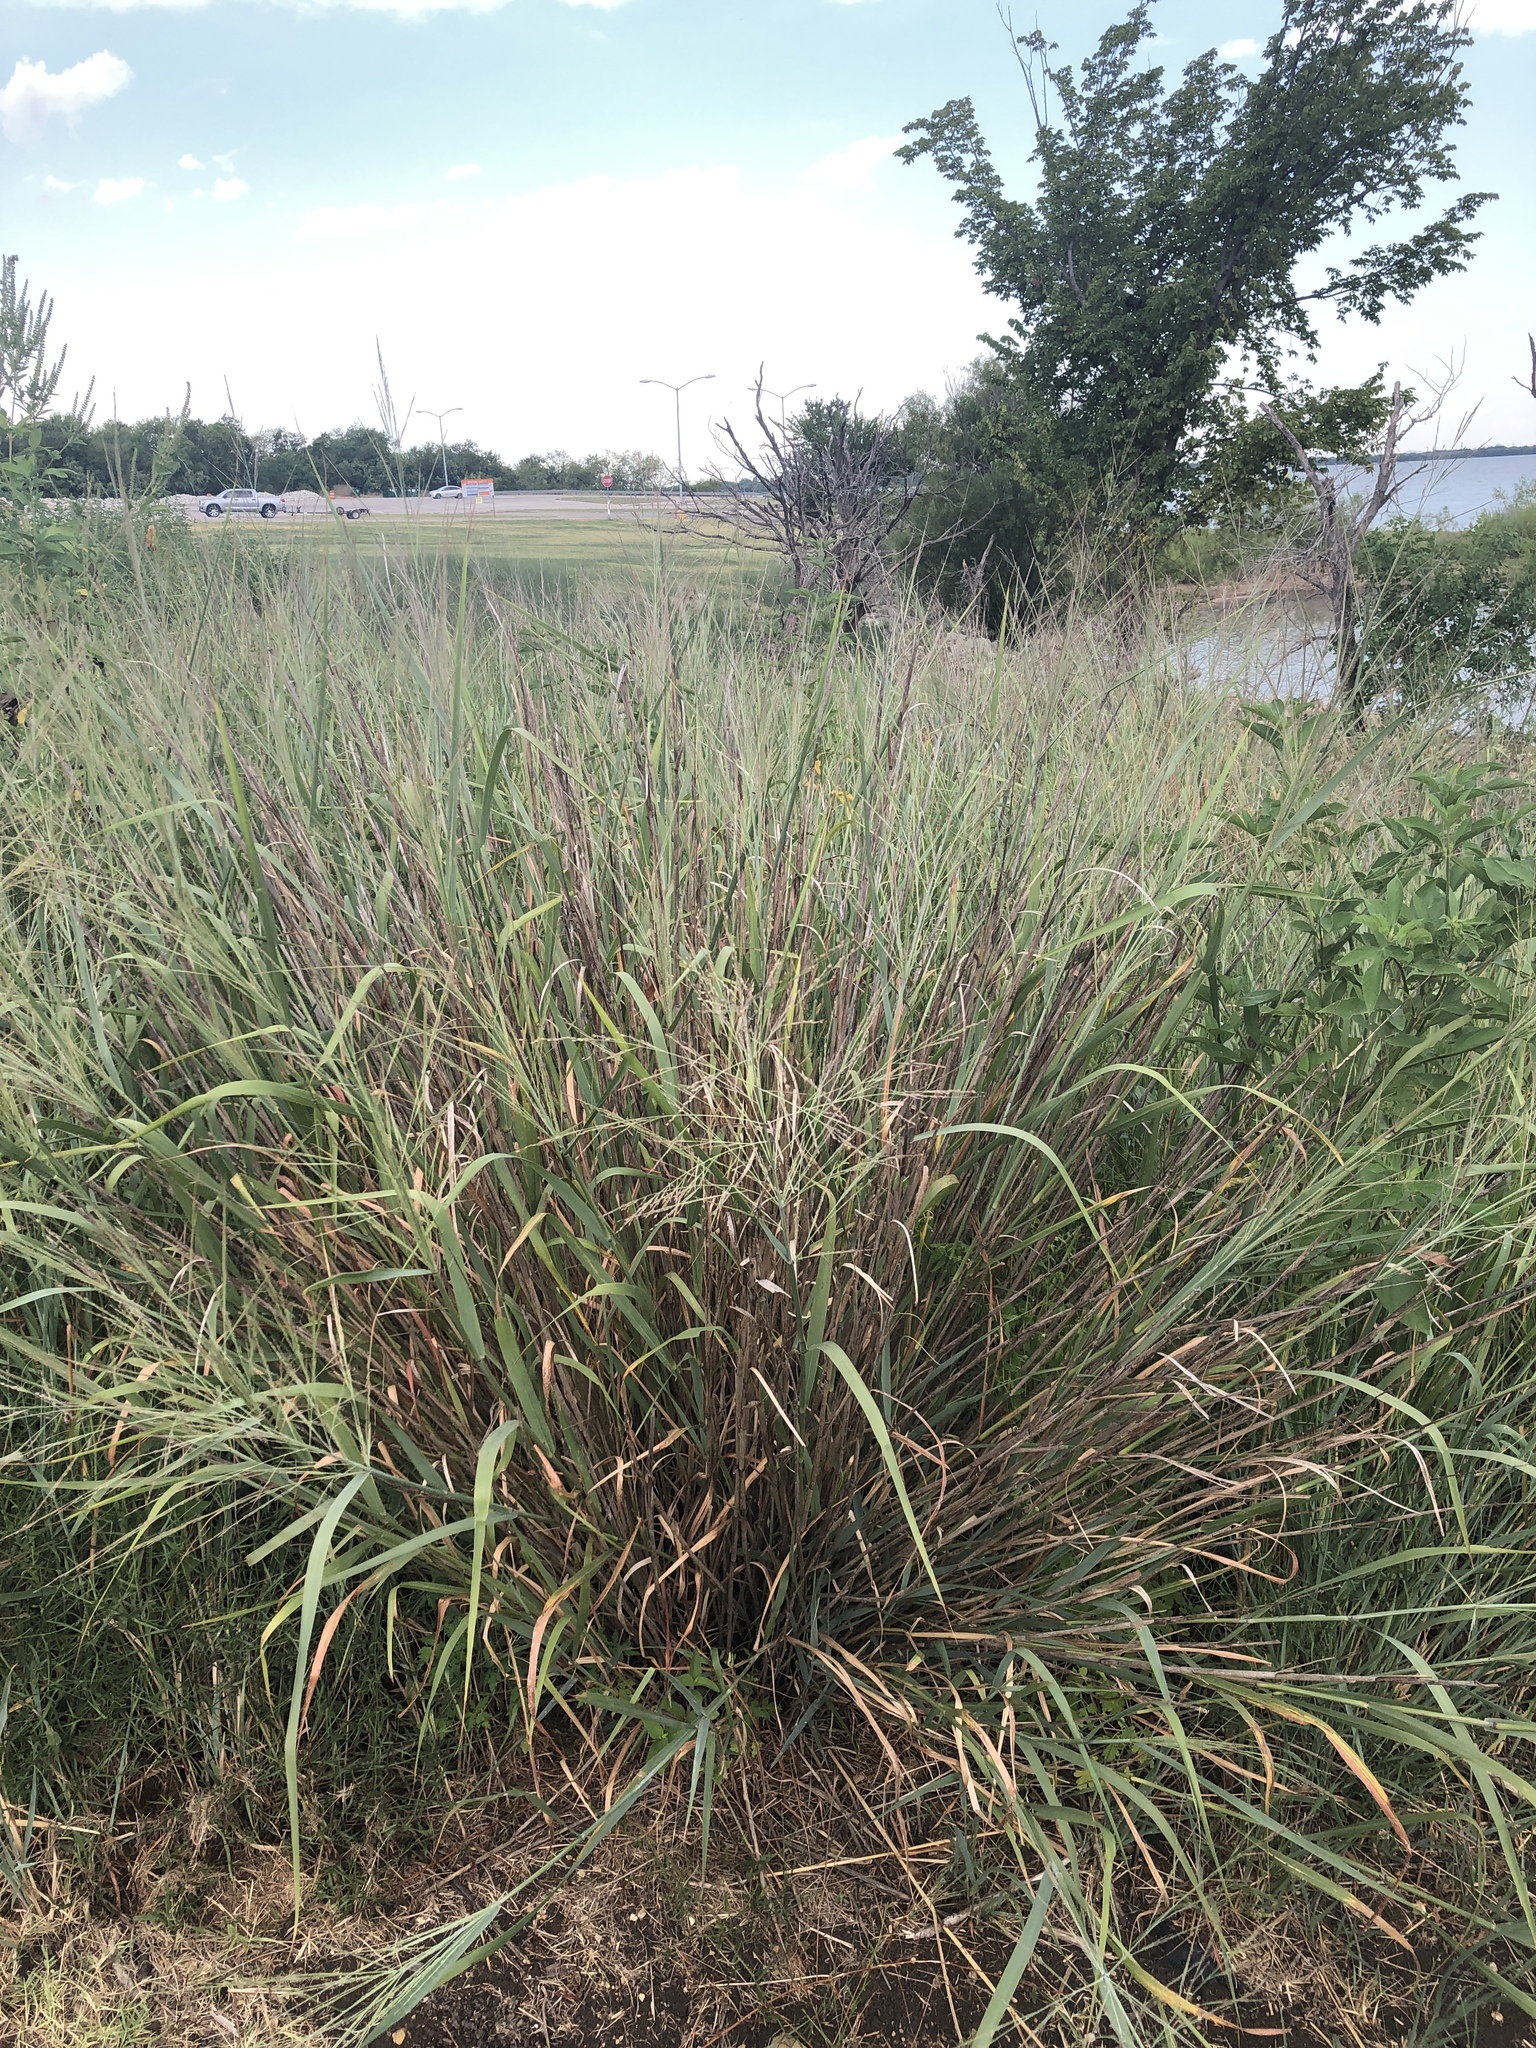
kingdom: Plantae
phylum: Tracheophyta
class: Liliopsida
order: Poales
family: Poaceae
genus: Panicum
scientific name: Panicum virgatum
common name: Switchgrass
